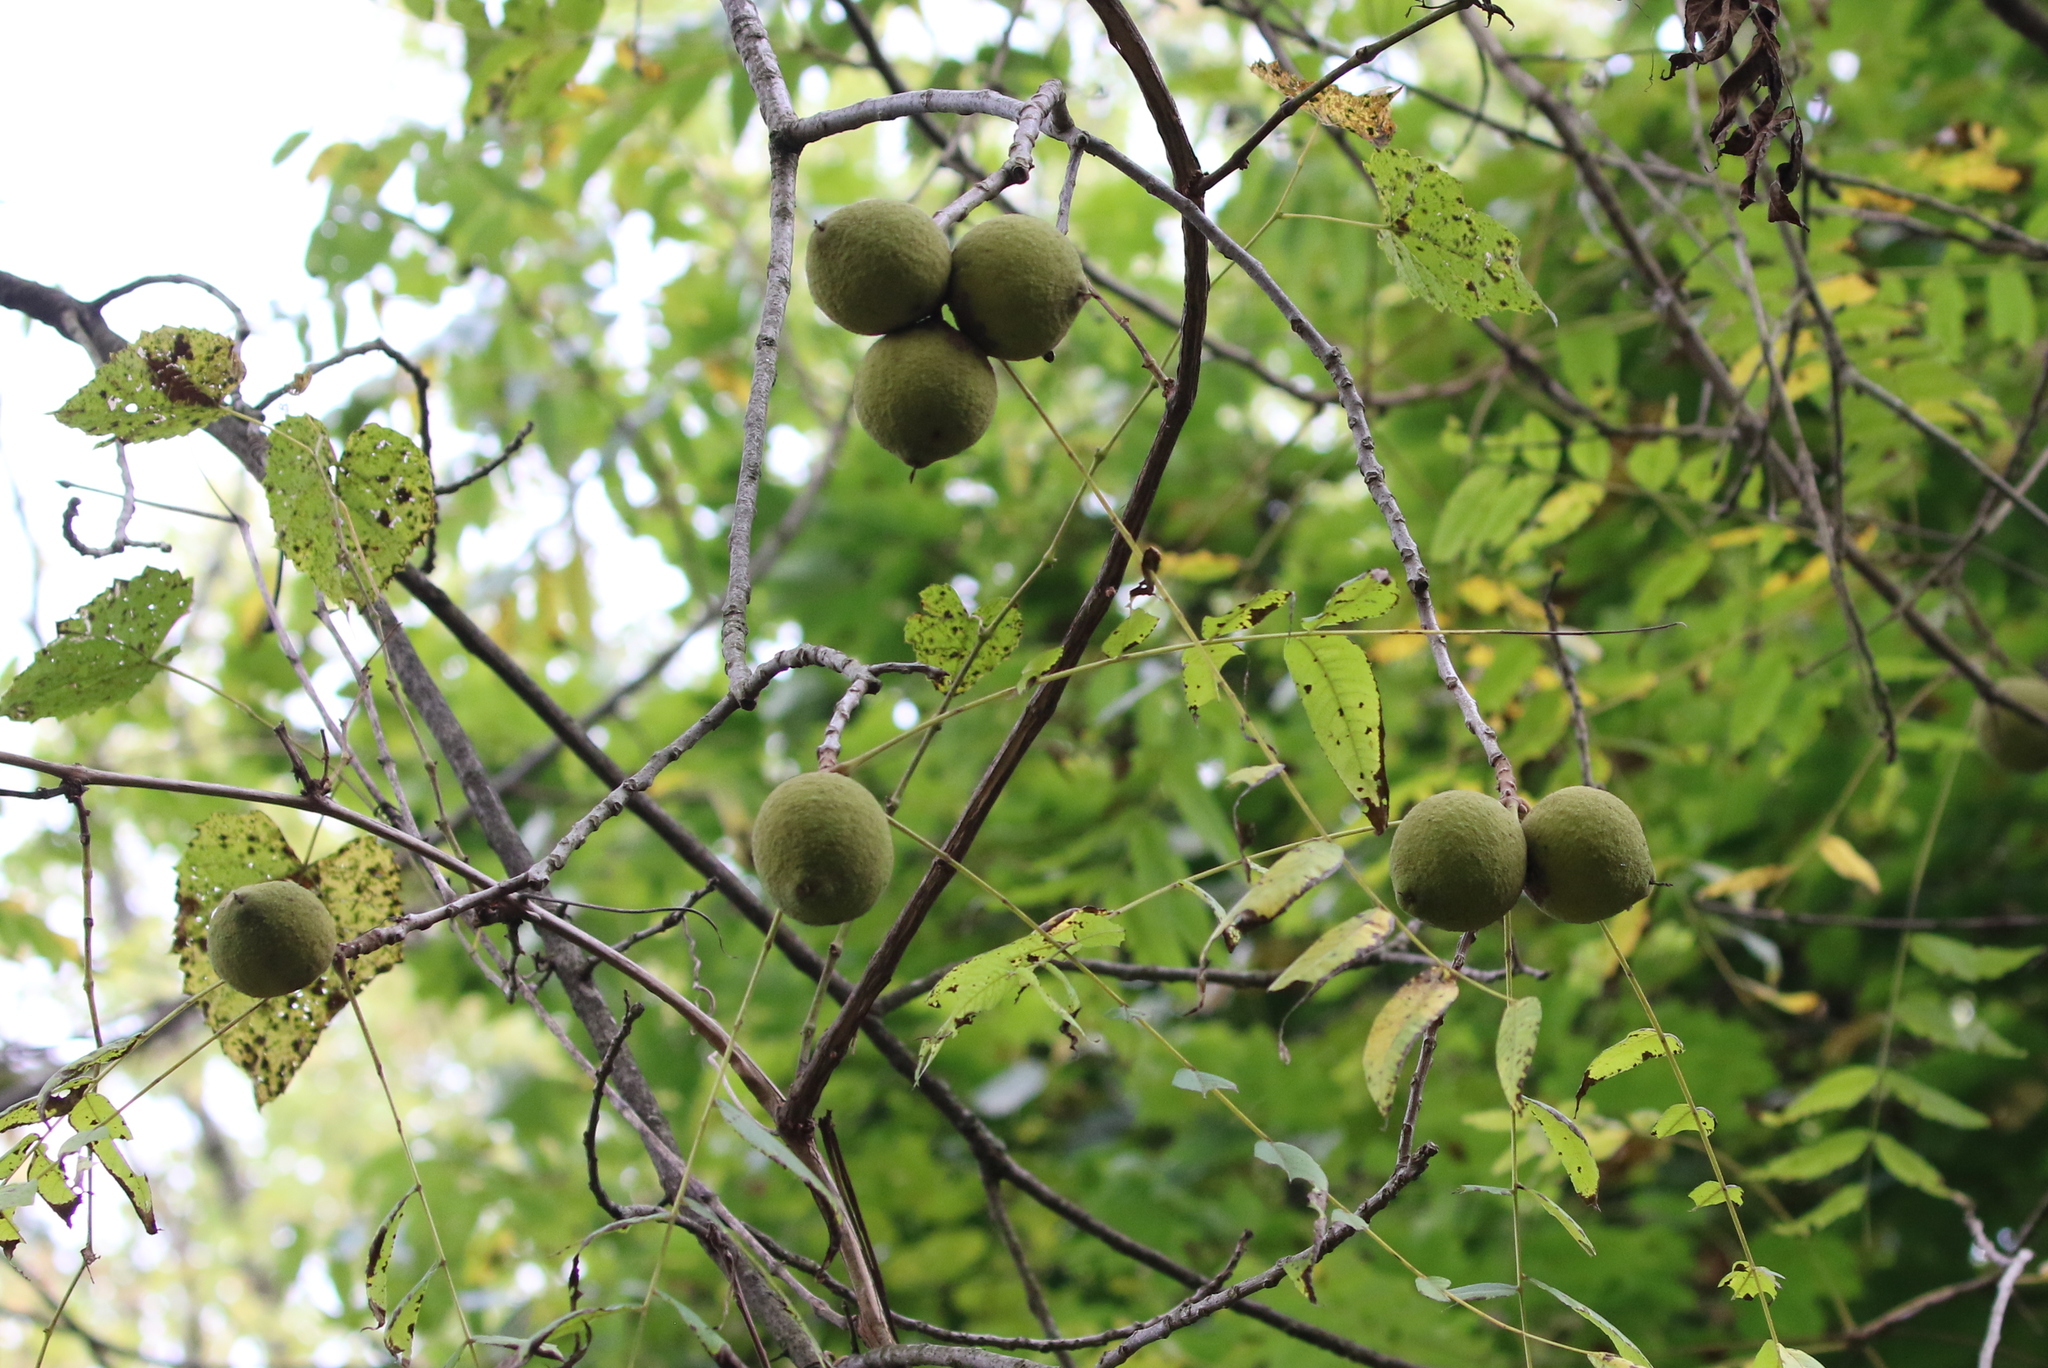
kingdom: Plantae
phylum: Tracheophyta
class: Magnoliopsida
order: Fagales
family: Juglandaceae
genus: Juglans
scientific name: Juglans nigra
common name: Black walnut
